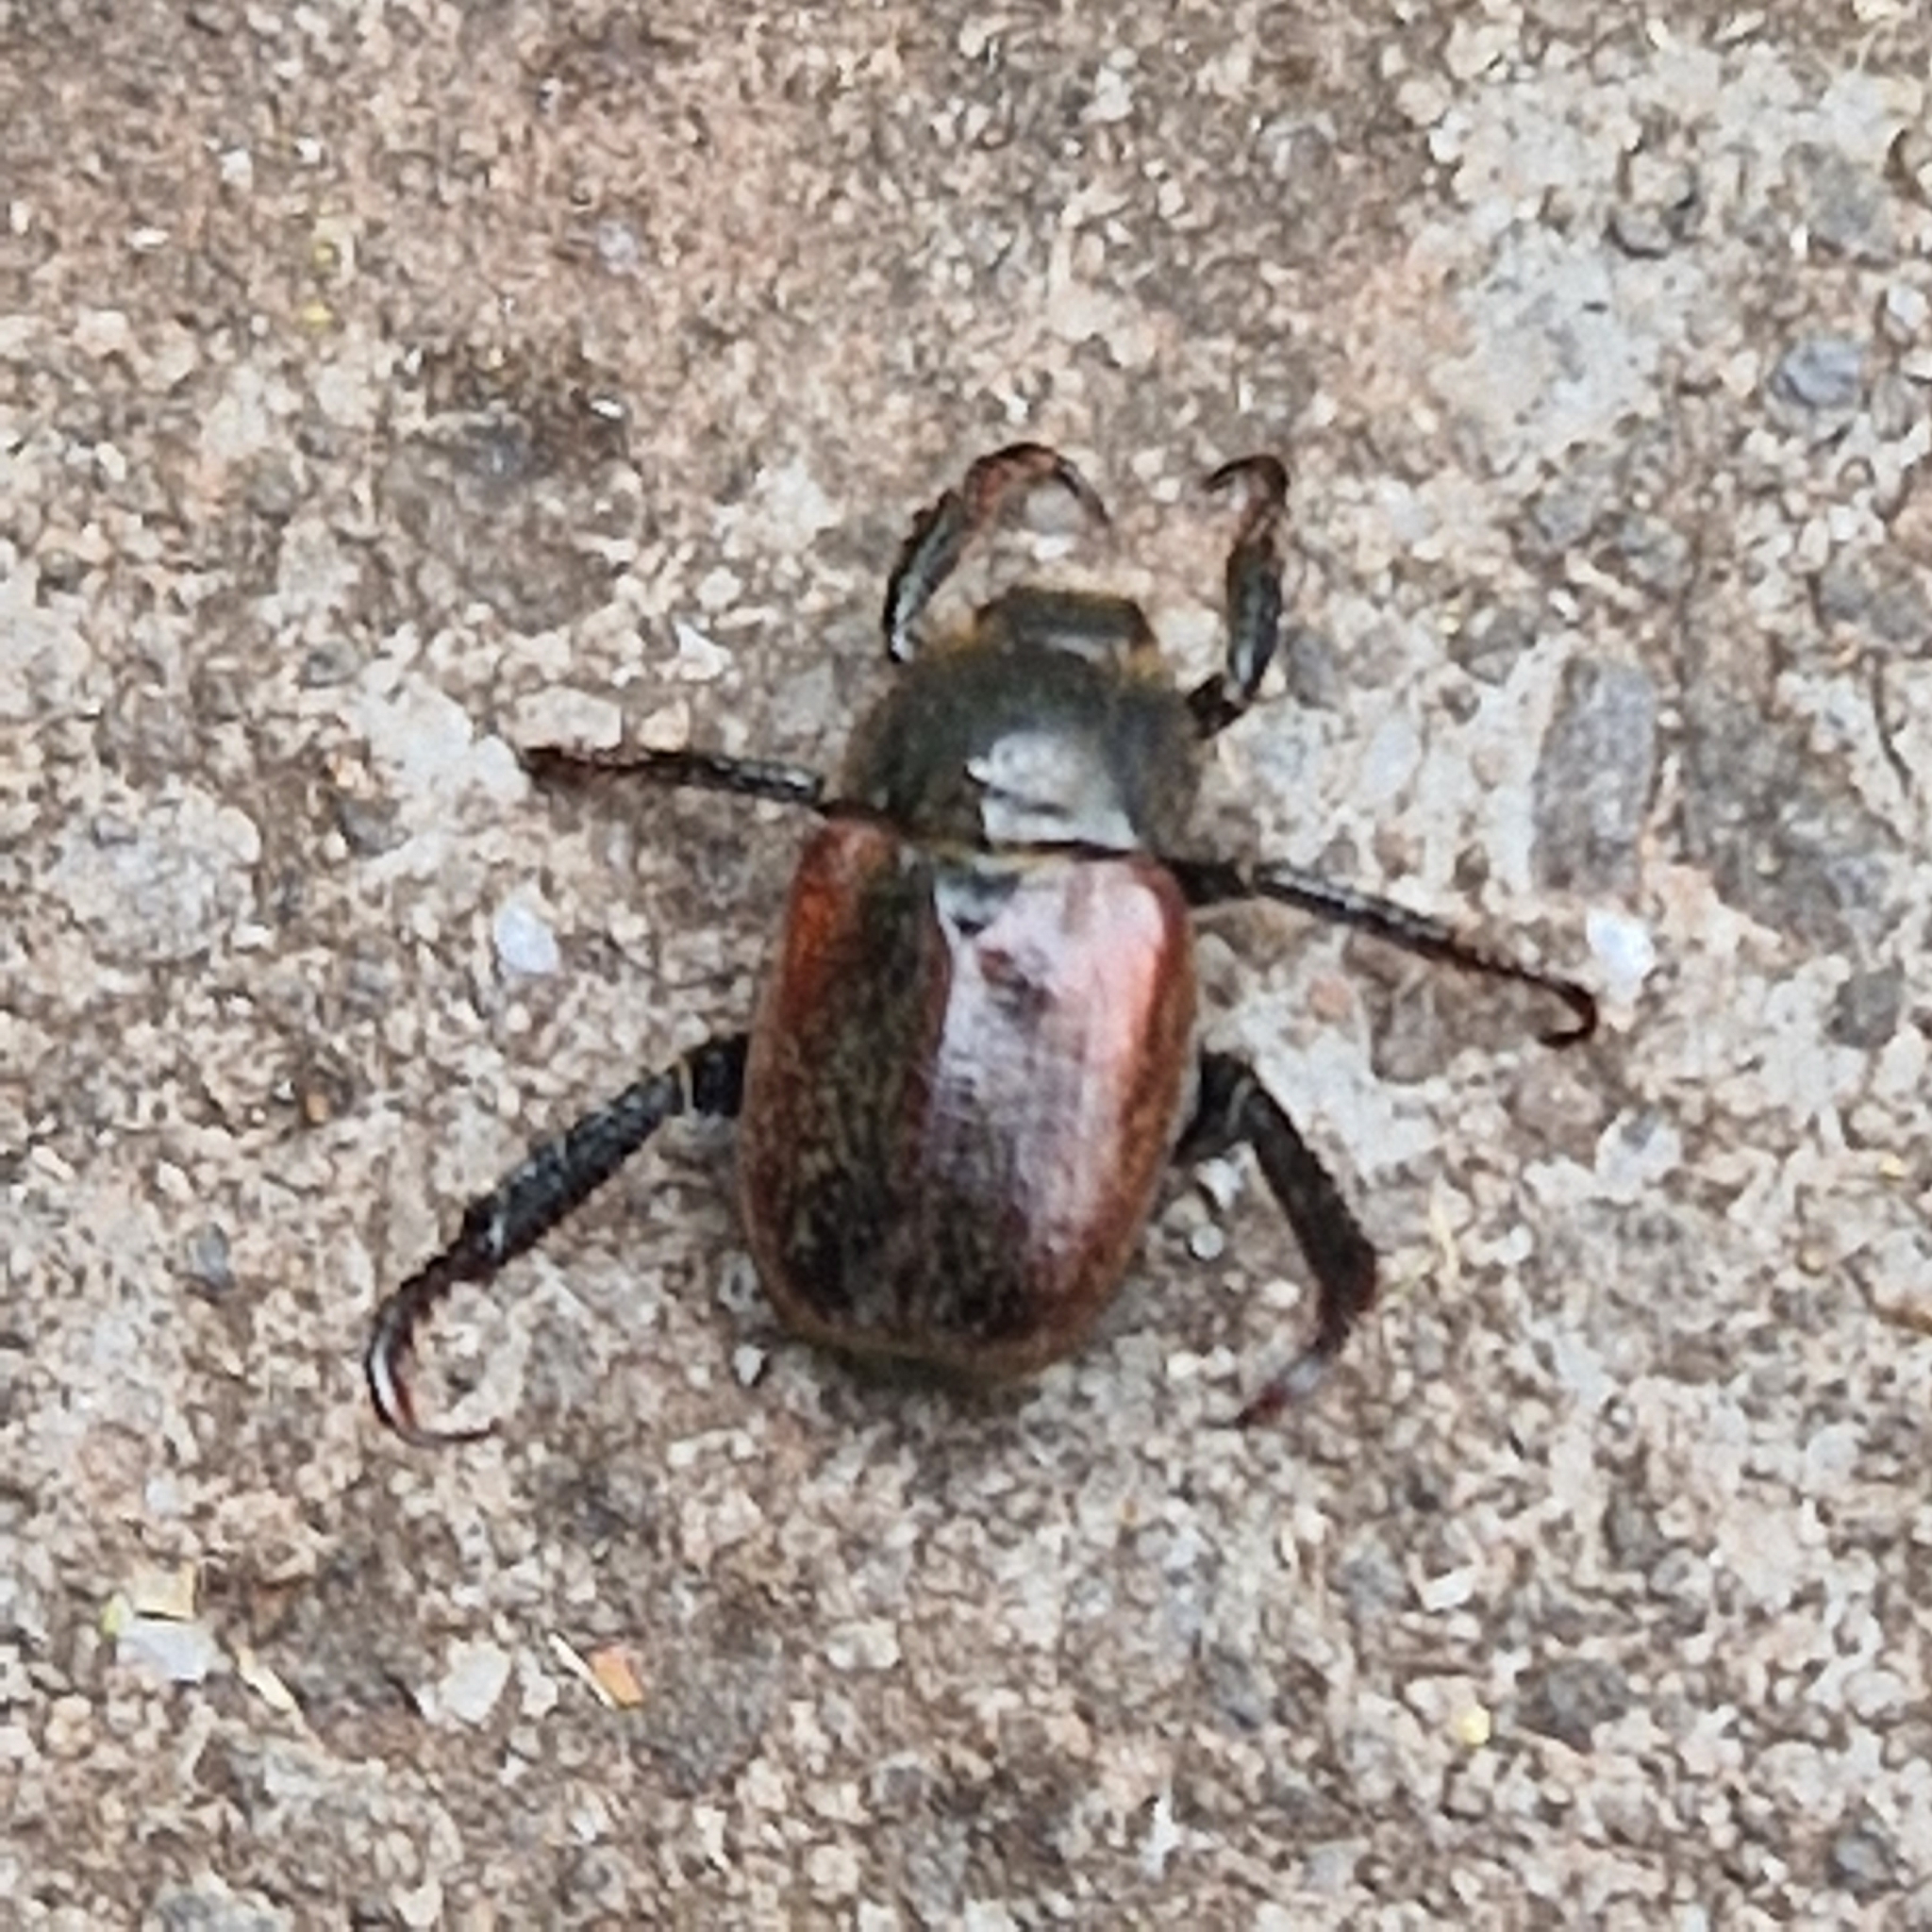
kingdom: Animalia
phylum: Arthropoda
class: Insecta
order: Coleoptera
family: Scarabaeidae
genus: Hoplia
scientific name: Hoplia philanthus
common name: Welsh chafer
